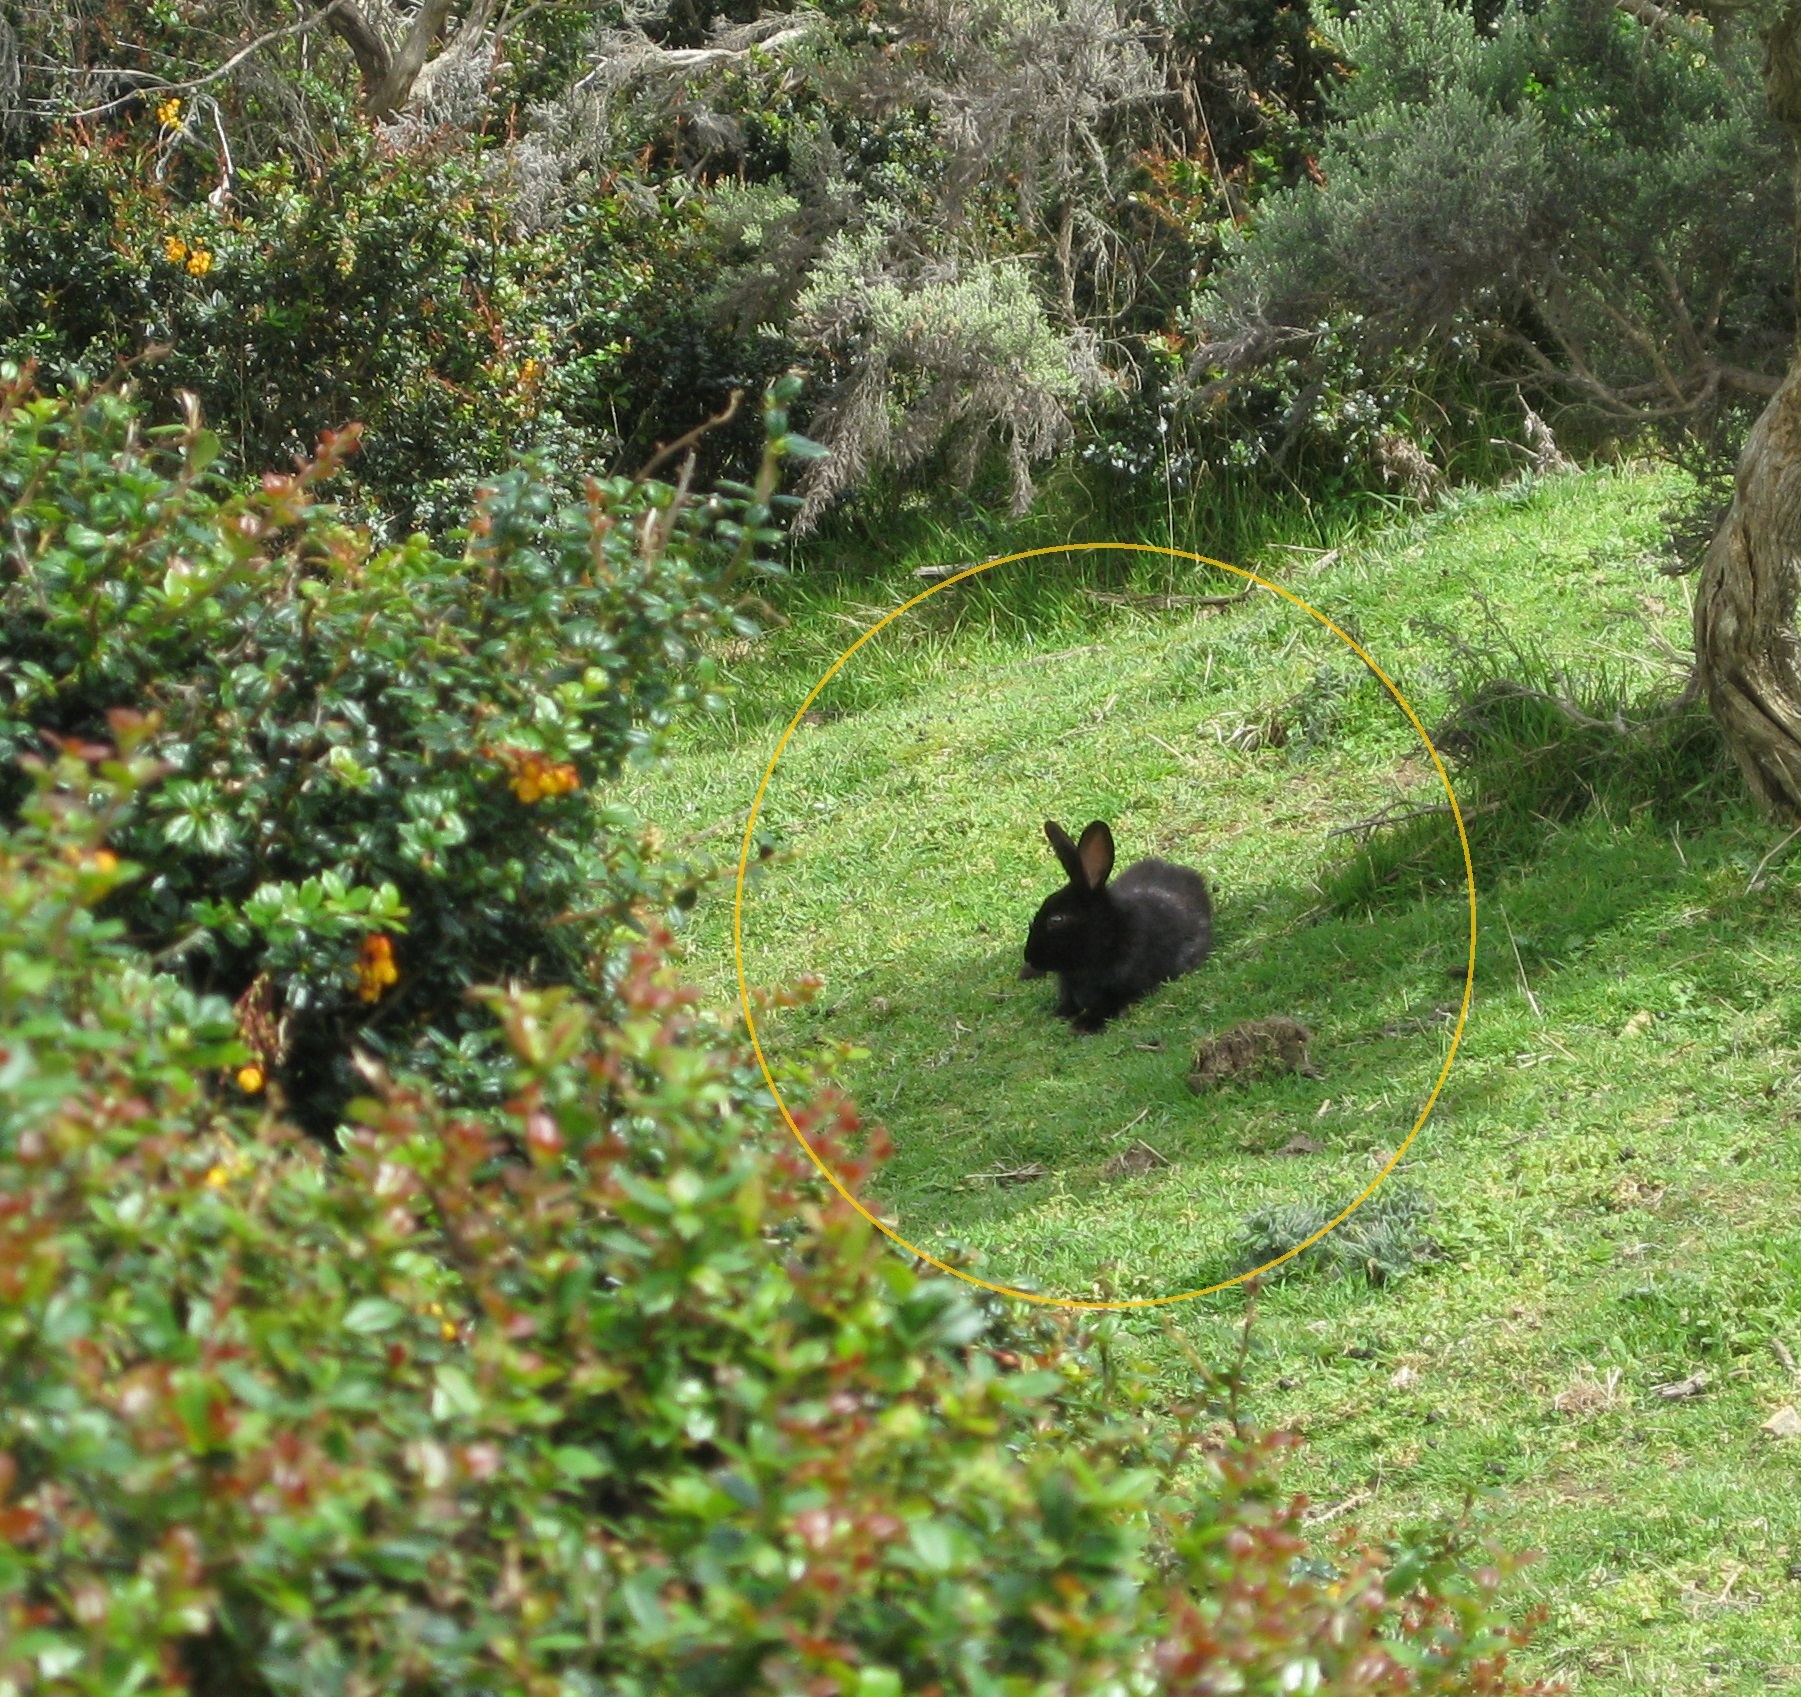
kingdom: Animalia
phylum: Chordata
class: Mammalia
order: Lagomorpha
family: Leporidae
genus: Oryctolagus
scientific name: Oryctolagus cuniculus
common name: European rabbit
